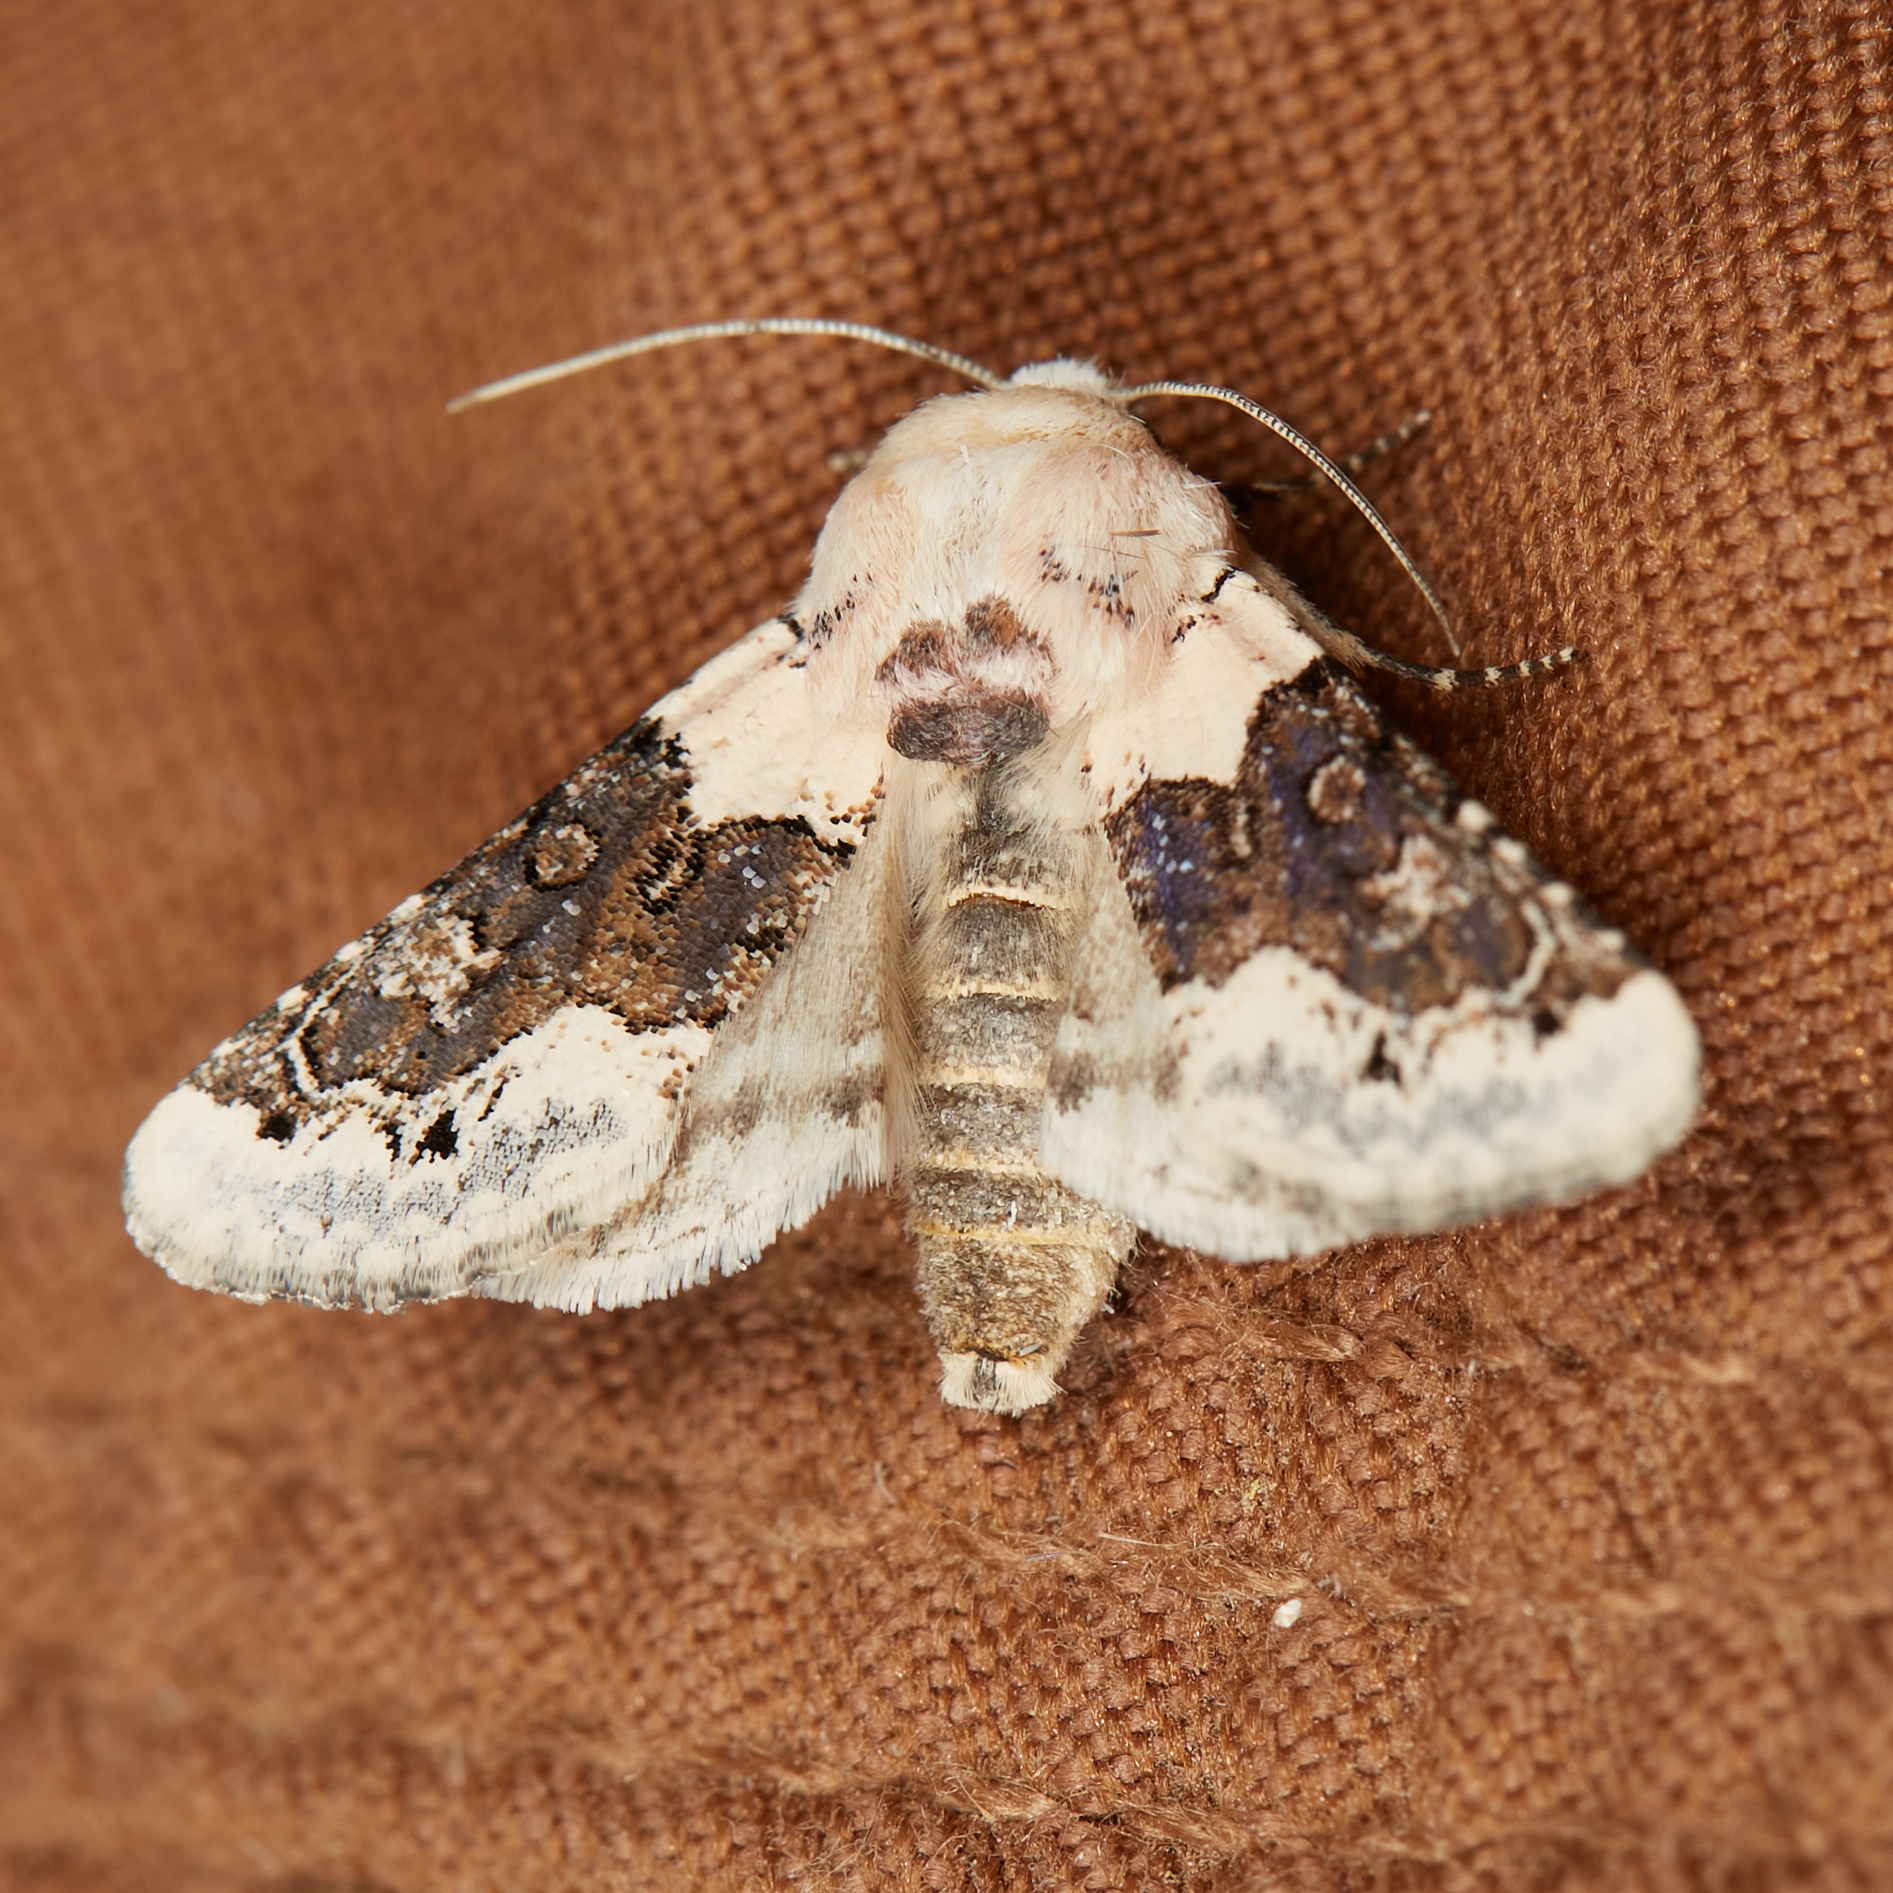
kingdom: Animalia
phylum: Arthropoda
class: Insecta
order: Lepidoptera
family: Noctuidae
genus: Triocnemis
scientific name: Triocnemis saporis
